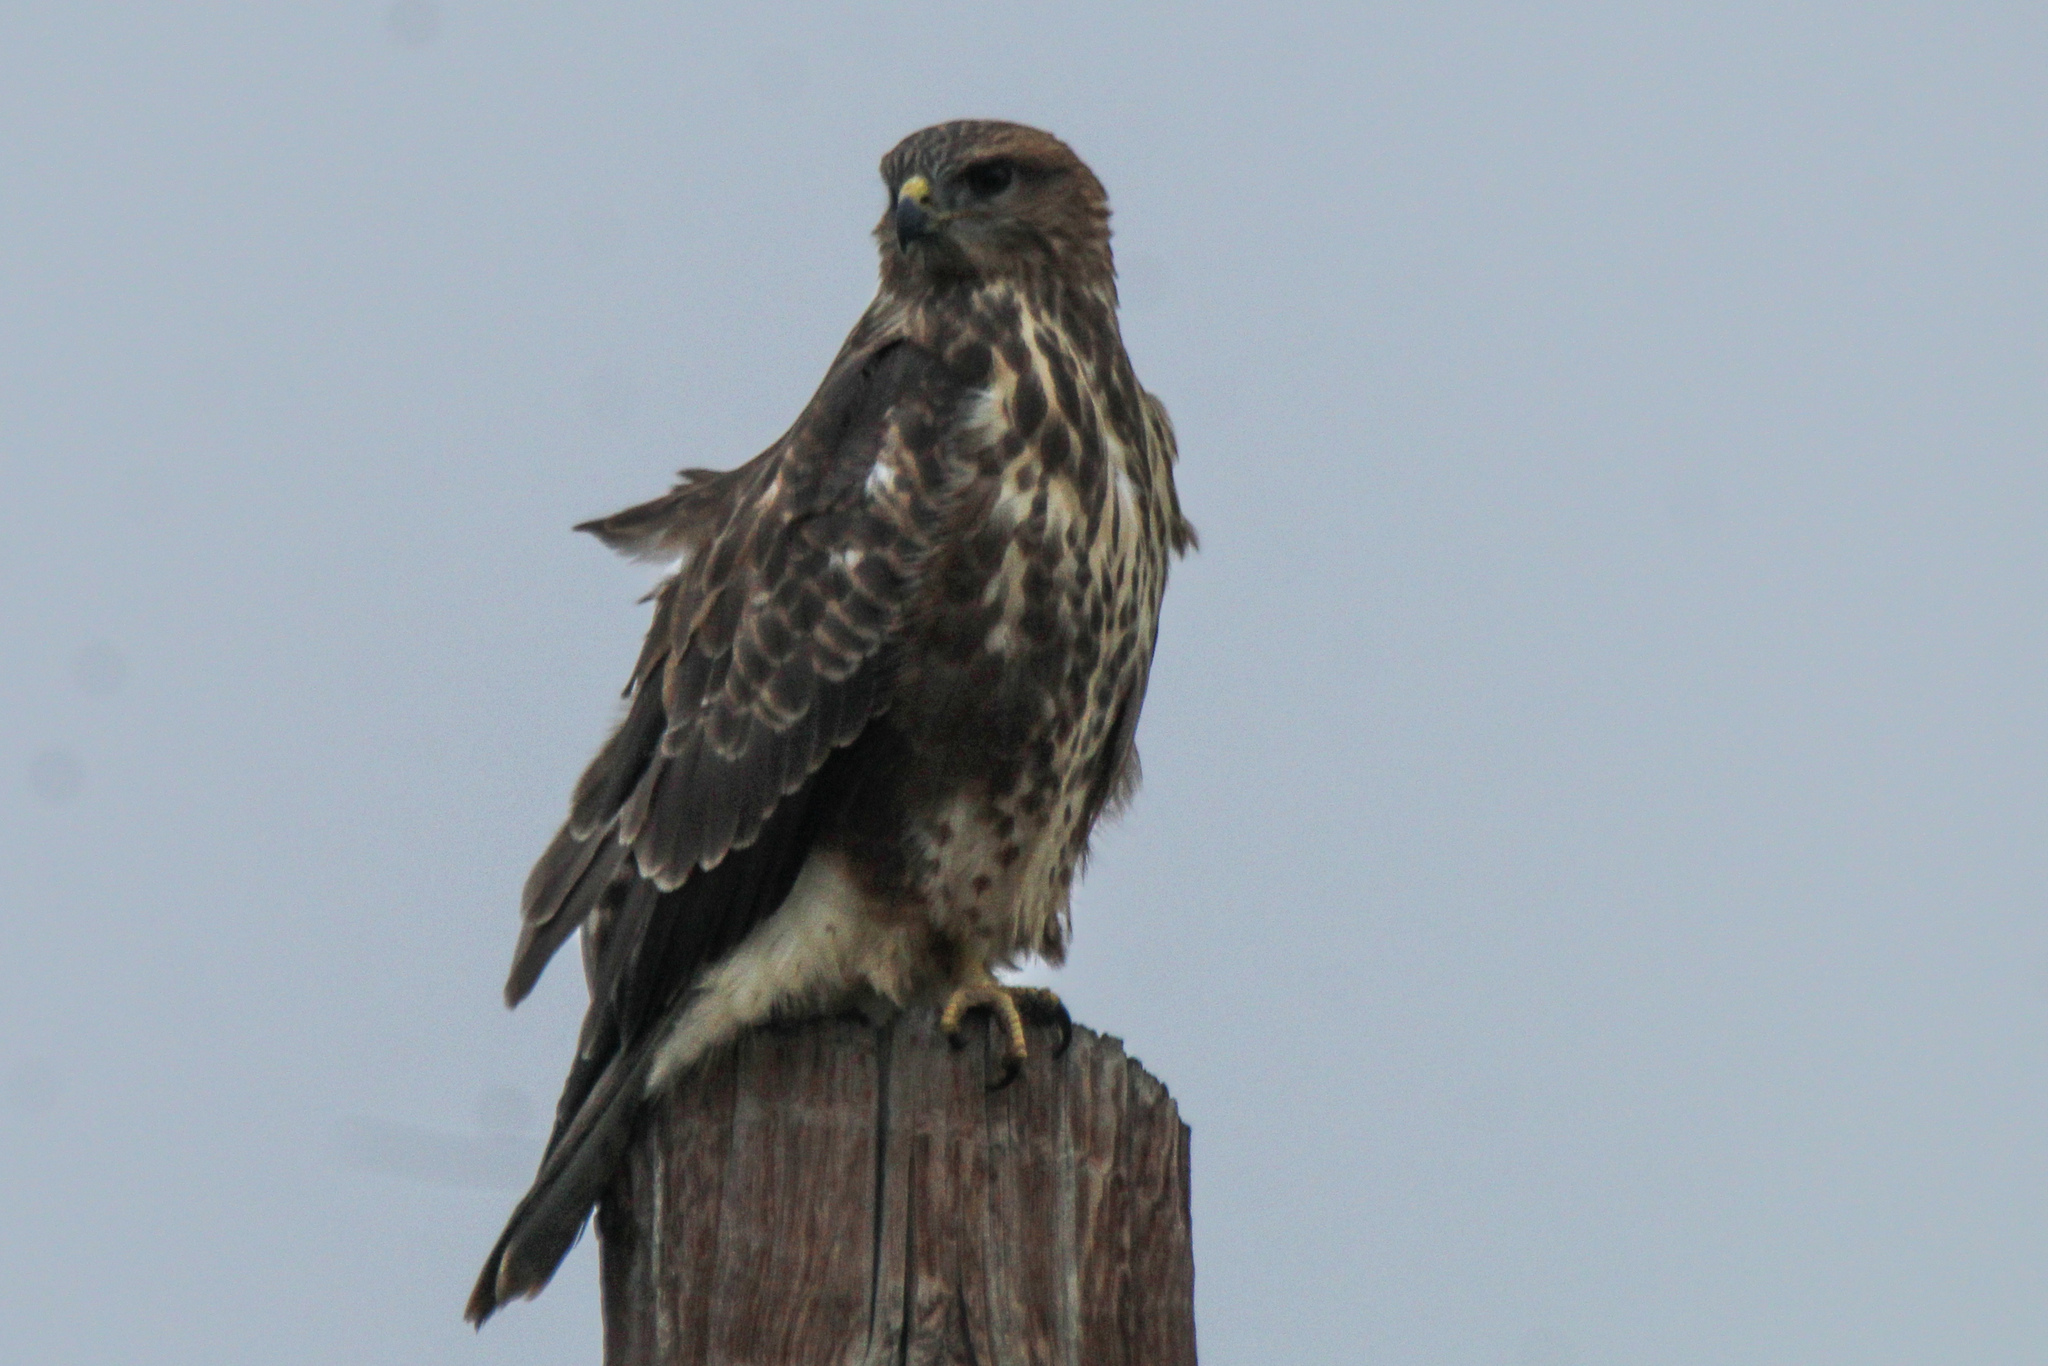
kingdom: Animalia
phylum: Chordata
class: Aves
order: Accipitriformes
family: Accipitridae
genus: Buteo
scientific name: Buteo buteo
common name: Common buzzard
